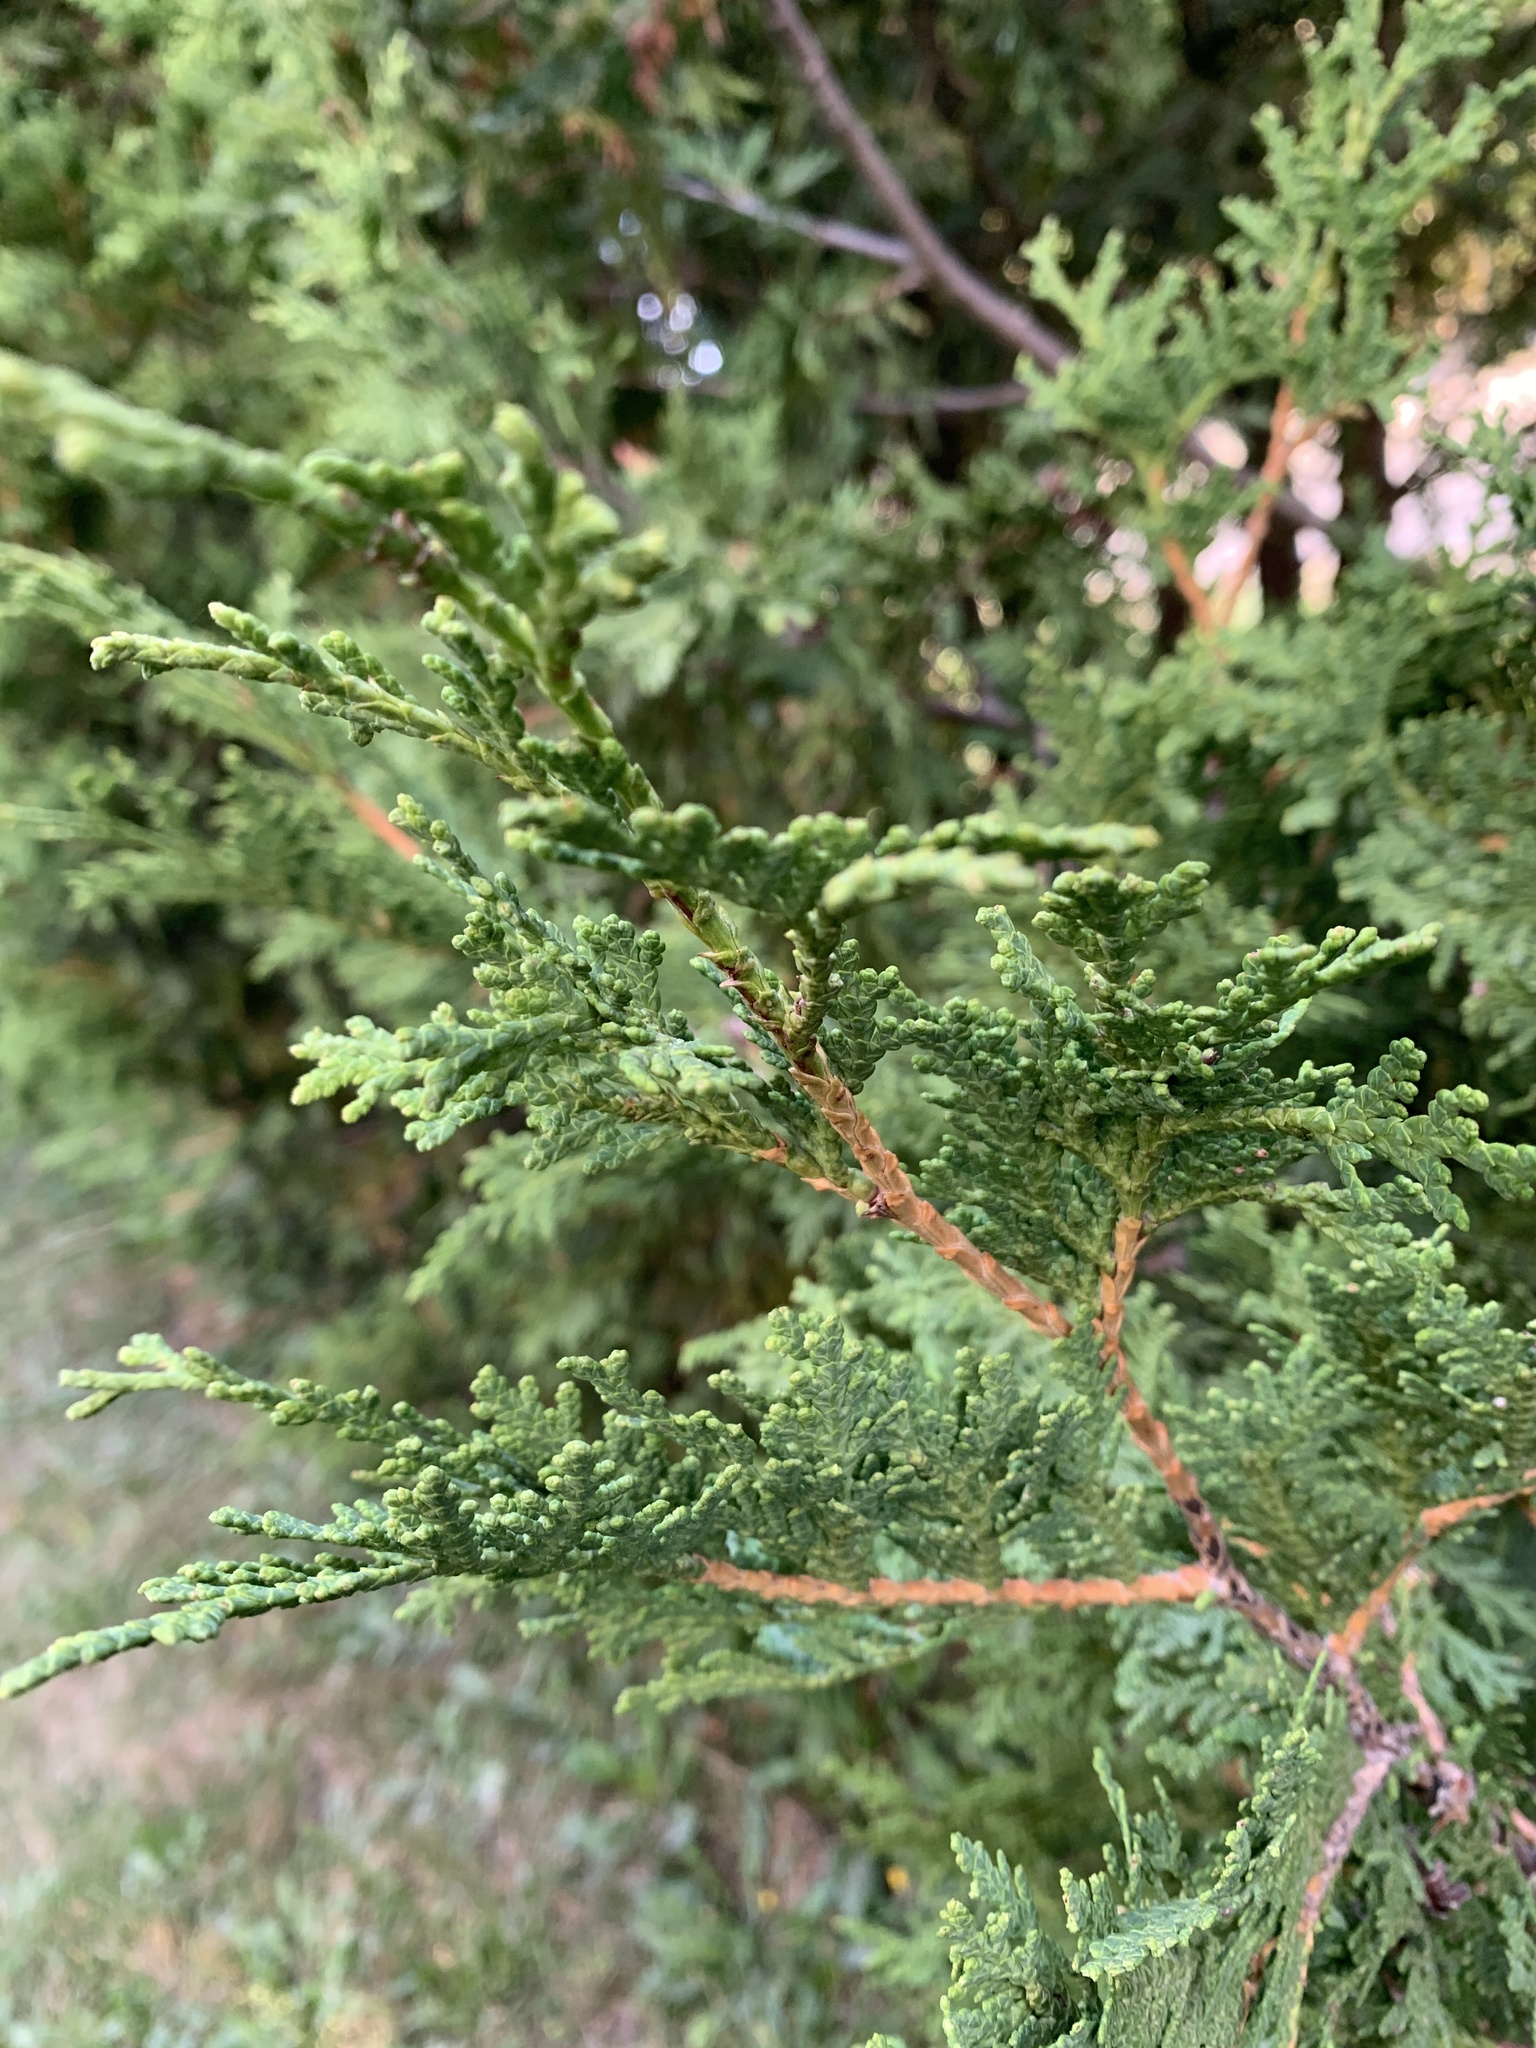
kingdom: Plantae
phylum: Tracheophyta
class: Pinopsida
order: Pinales
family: Cupressaceae
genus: Thuja
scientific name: Thuja occidentalis
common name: Northern white-cedar
